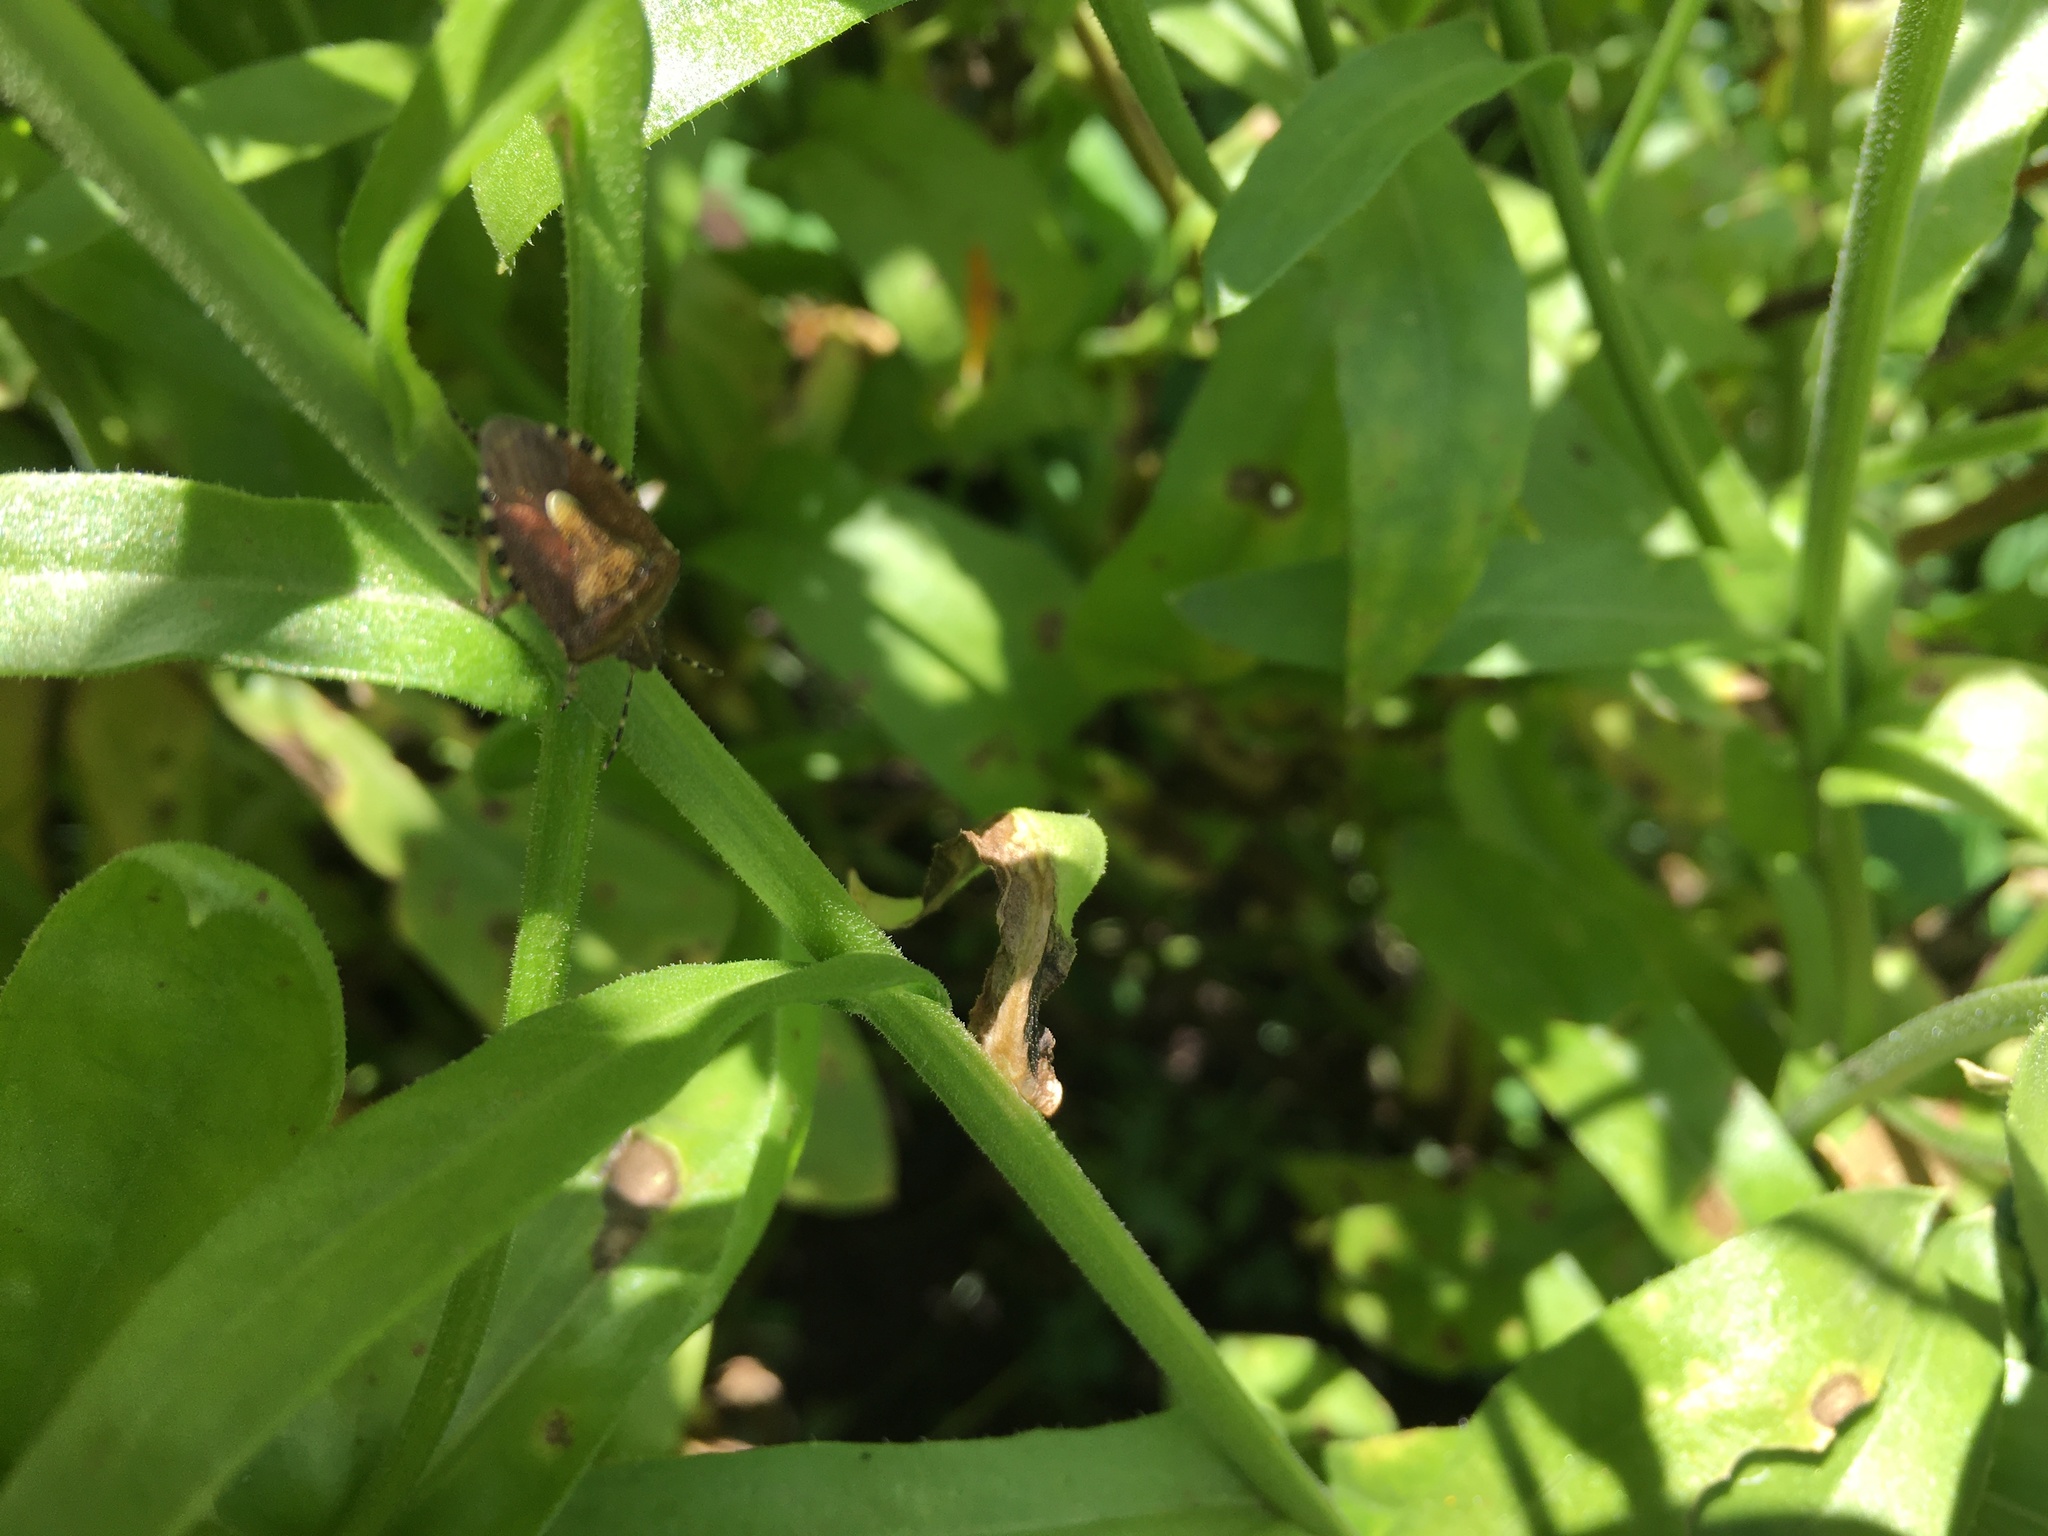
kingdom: Animalia
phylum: Arthropoda
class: Insecta
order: Hemiptera
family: Pentatomidae
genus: Dolycoris
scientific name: Dolycoris baccarum
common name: Sloe bug
